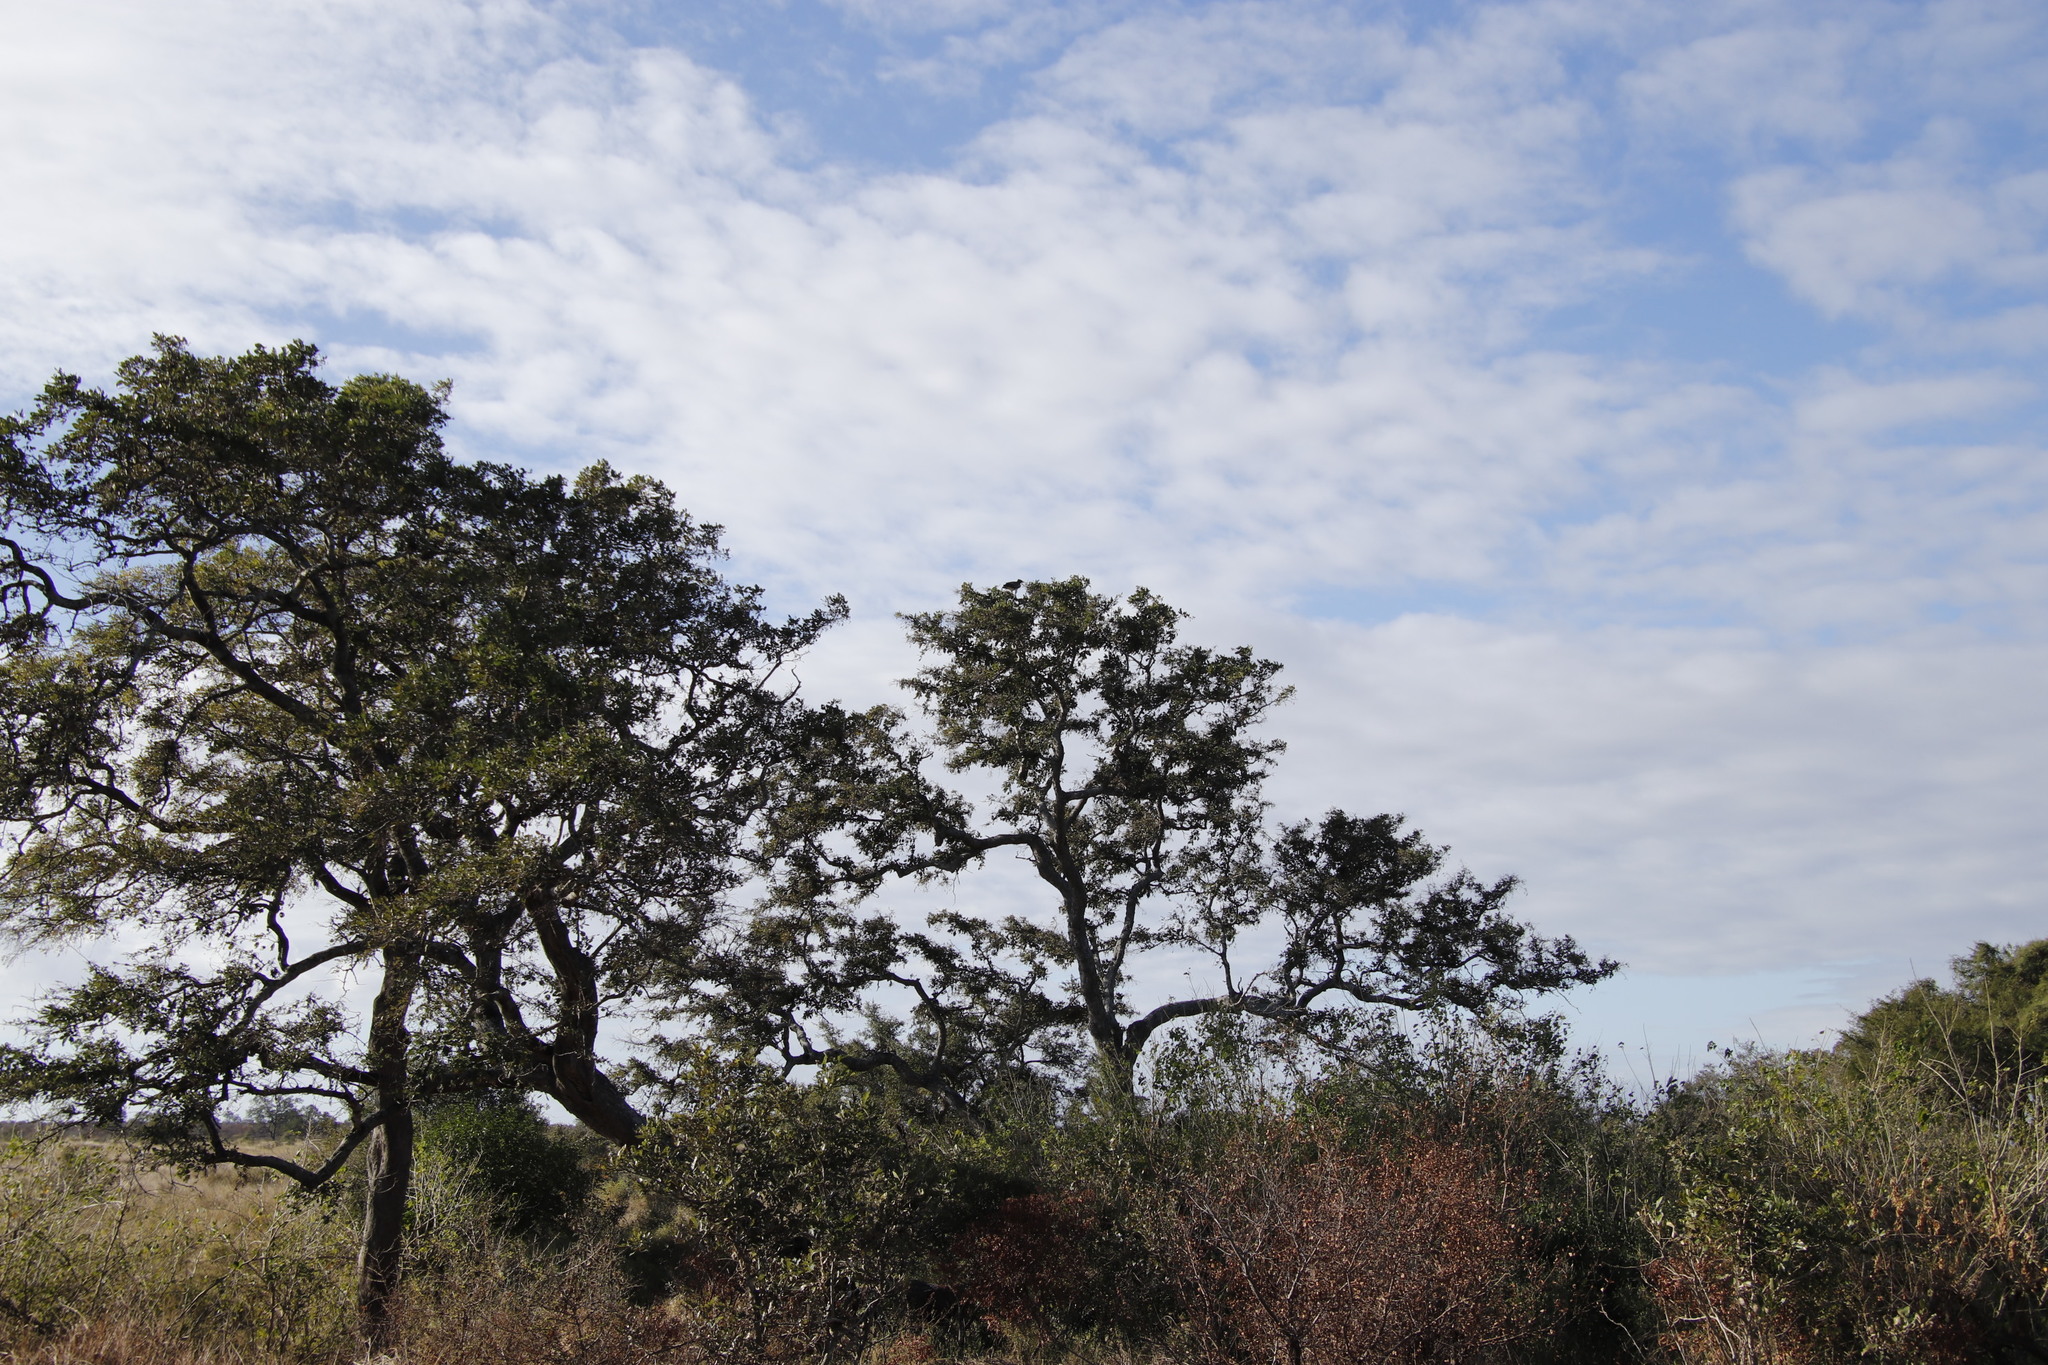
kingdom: Plantae
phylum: Tracheophyta
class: Magnoliopsida
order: Ericales
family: Ebenaceae
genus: Diospyros
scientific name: Diospyros mespiliformis
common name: Ebony diospyros
